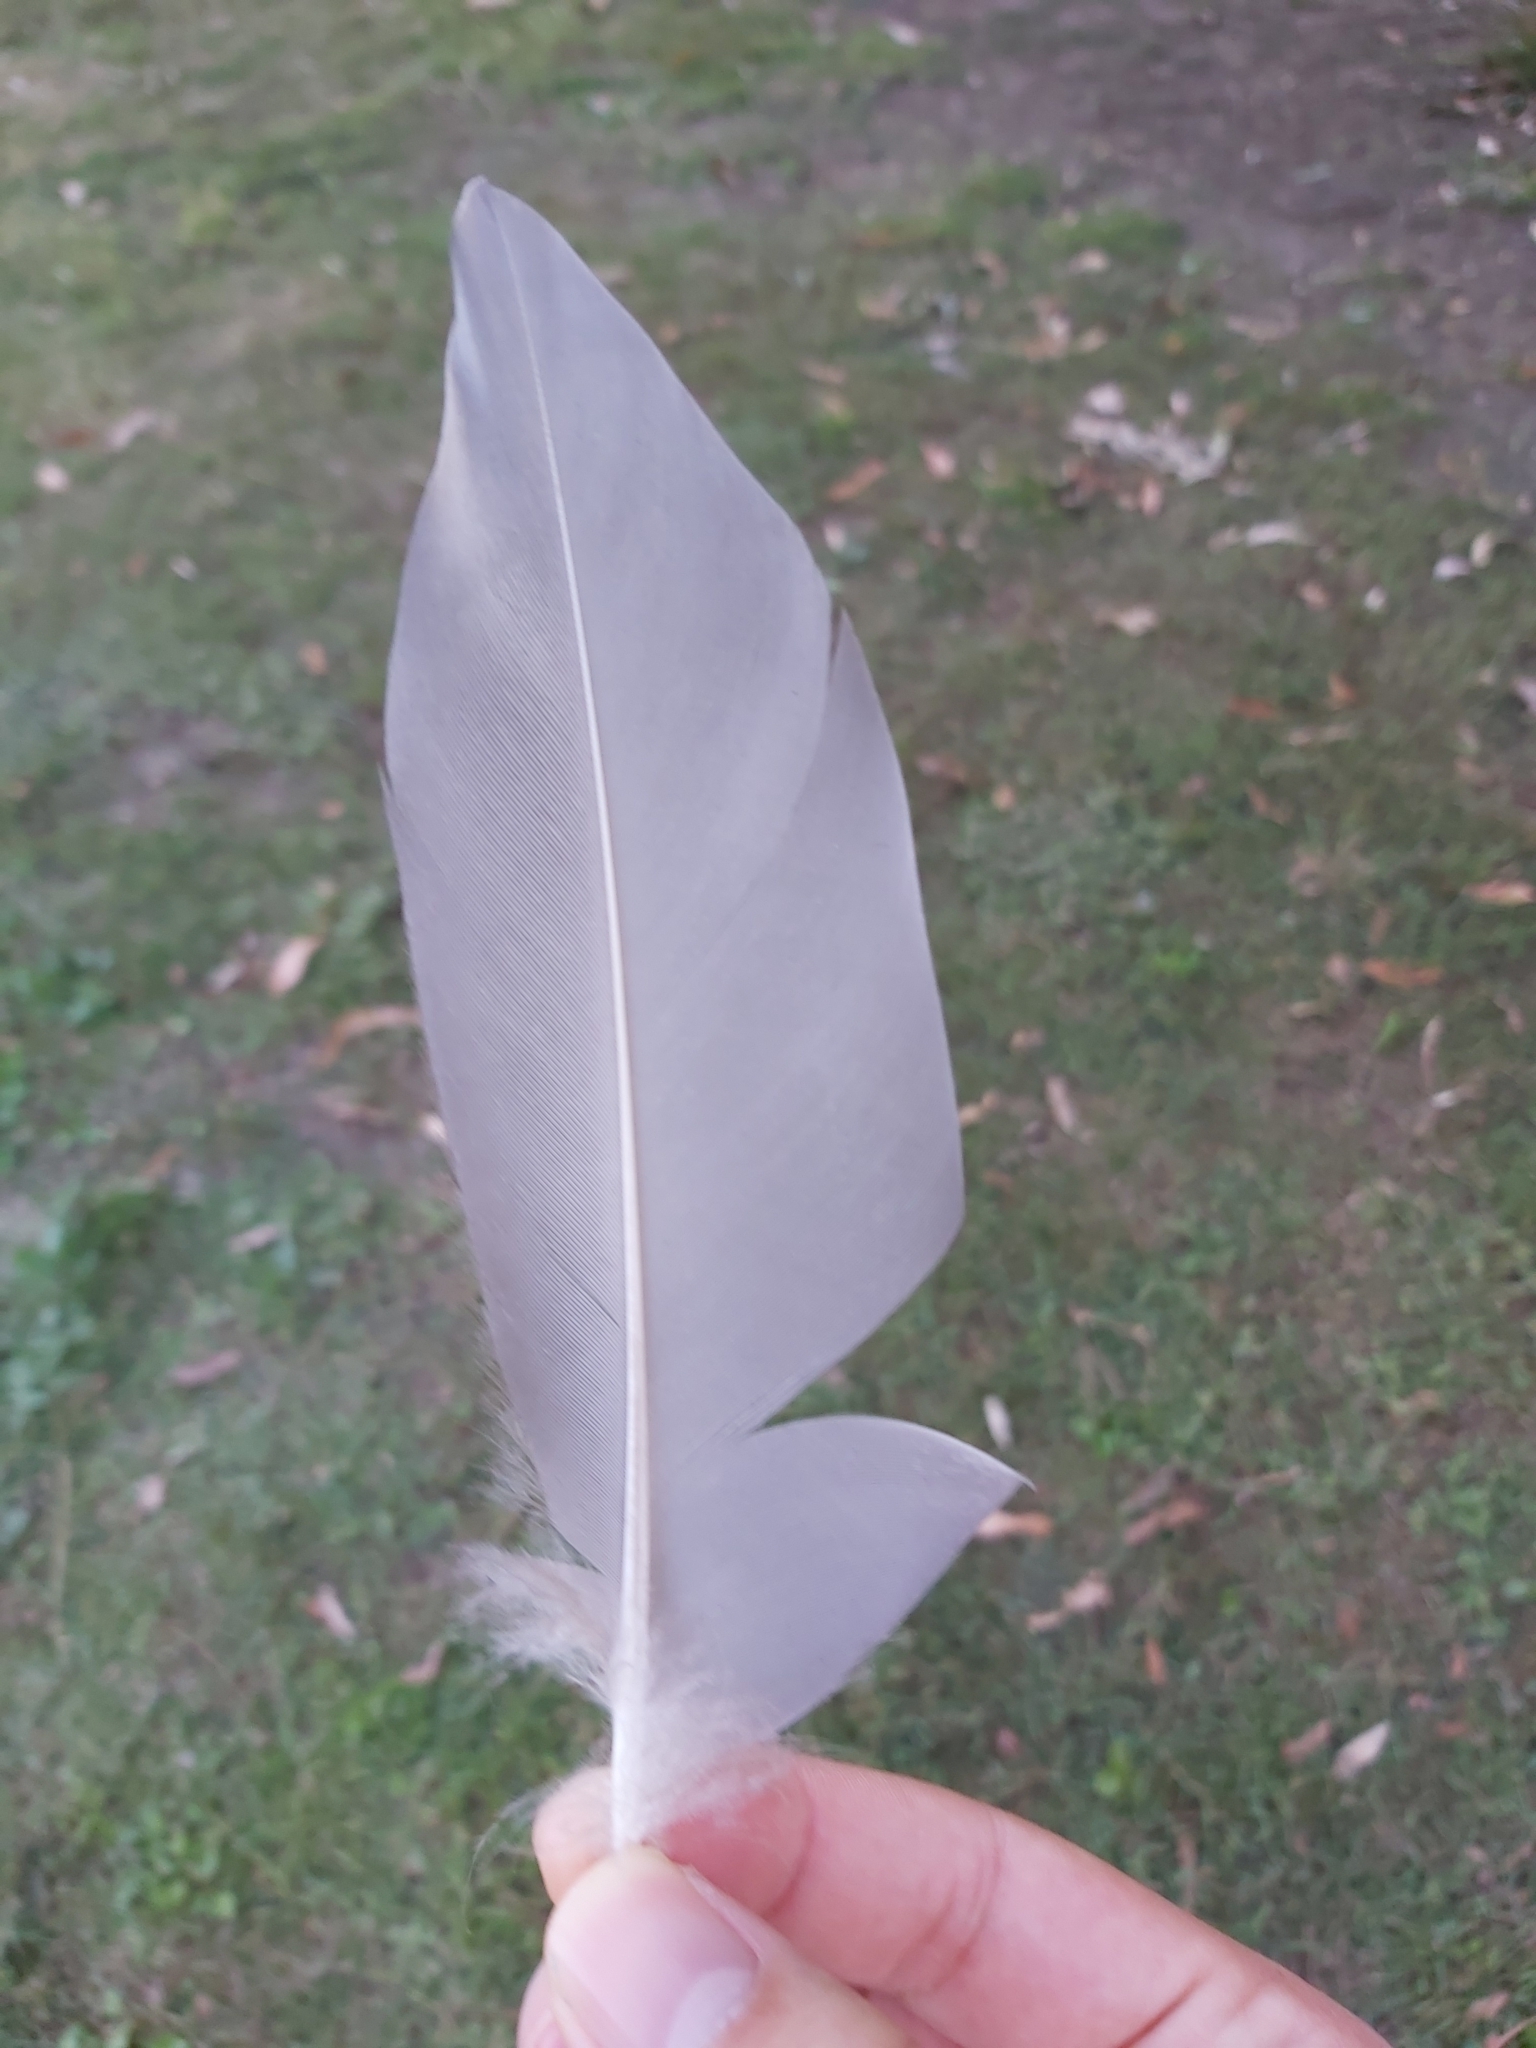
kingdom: Animalia
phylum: Chordata
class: Aves
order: Anseriformes
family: Anatidae
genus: Chenonetta
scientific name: Chenonetta jubata
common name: Maned duck
